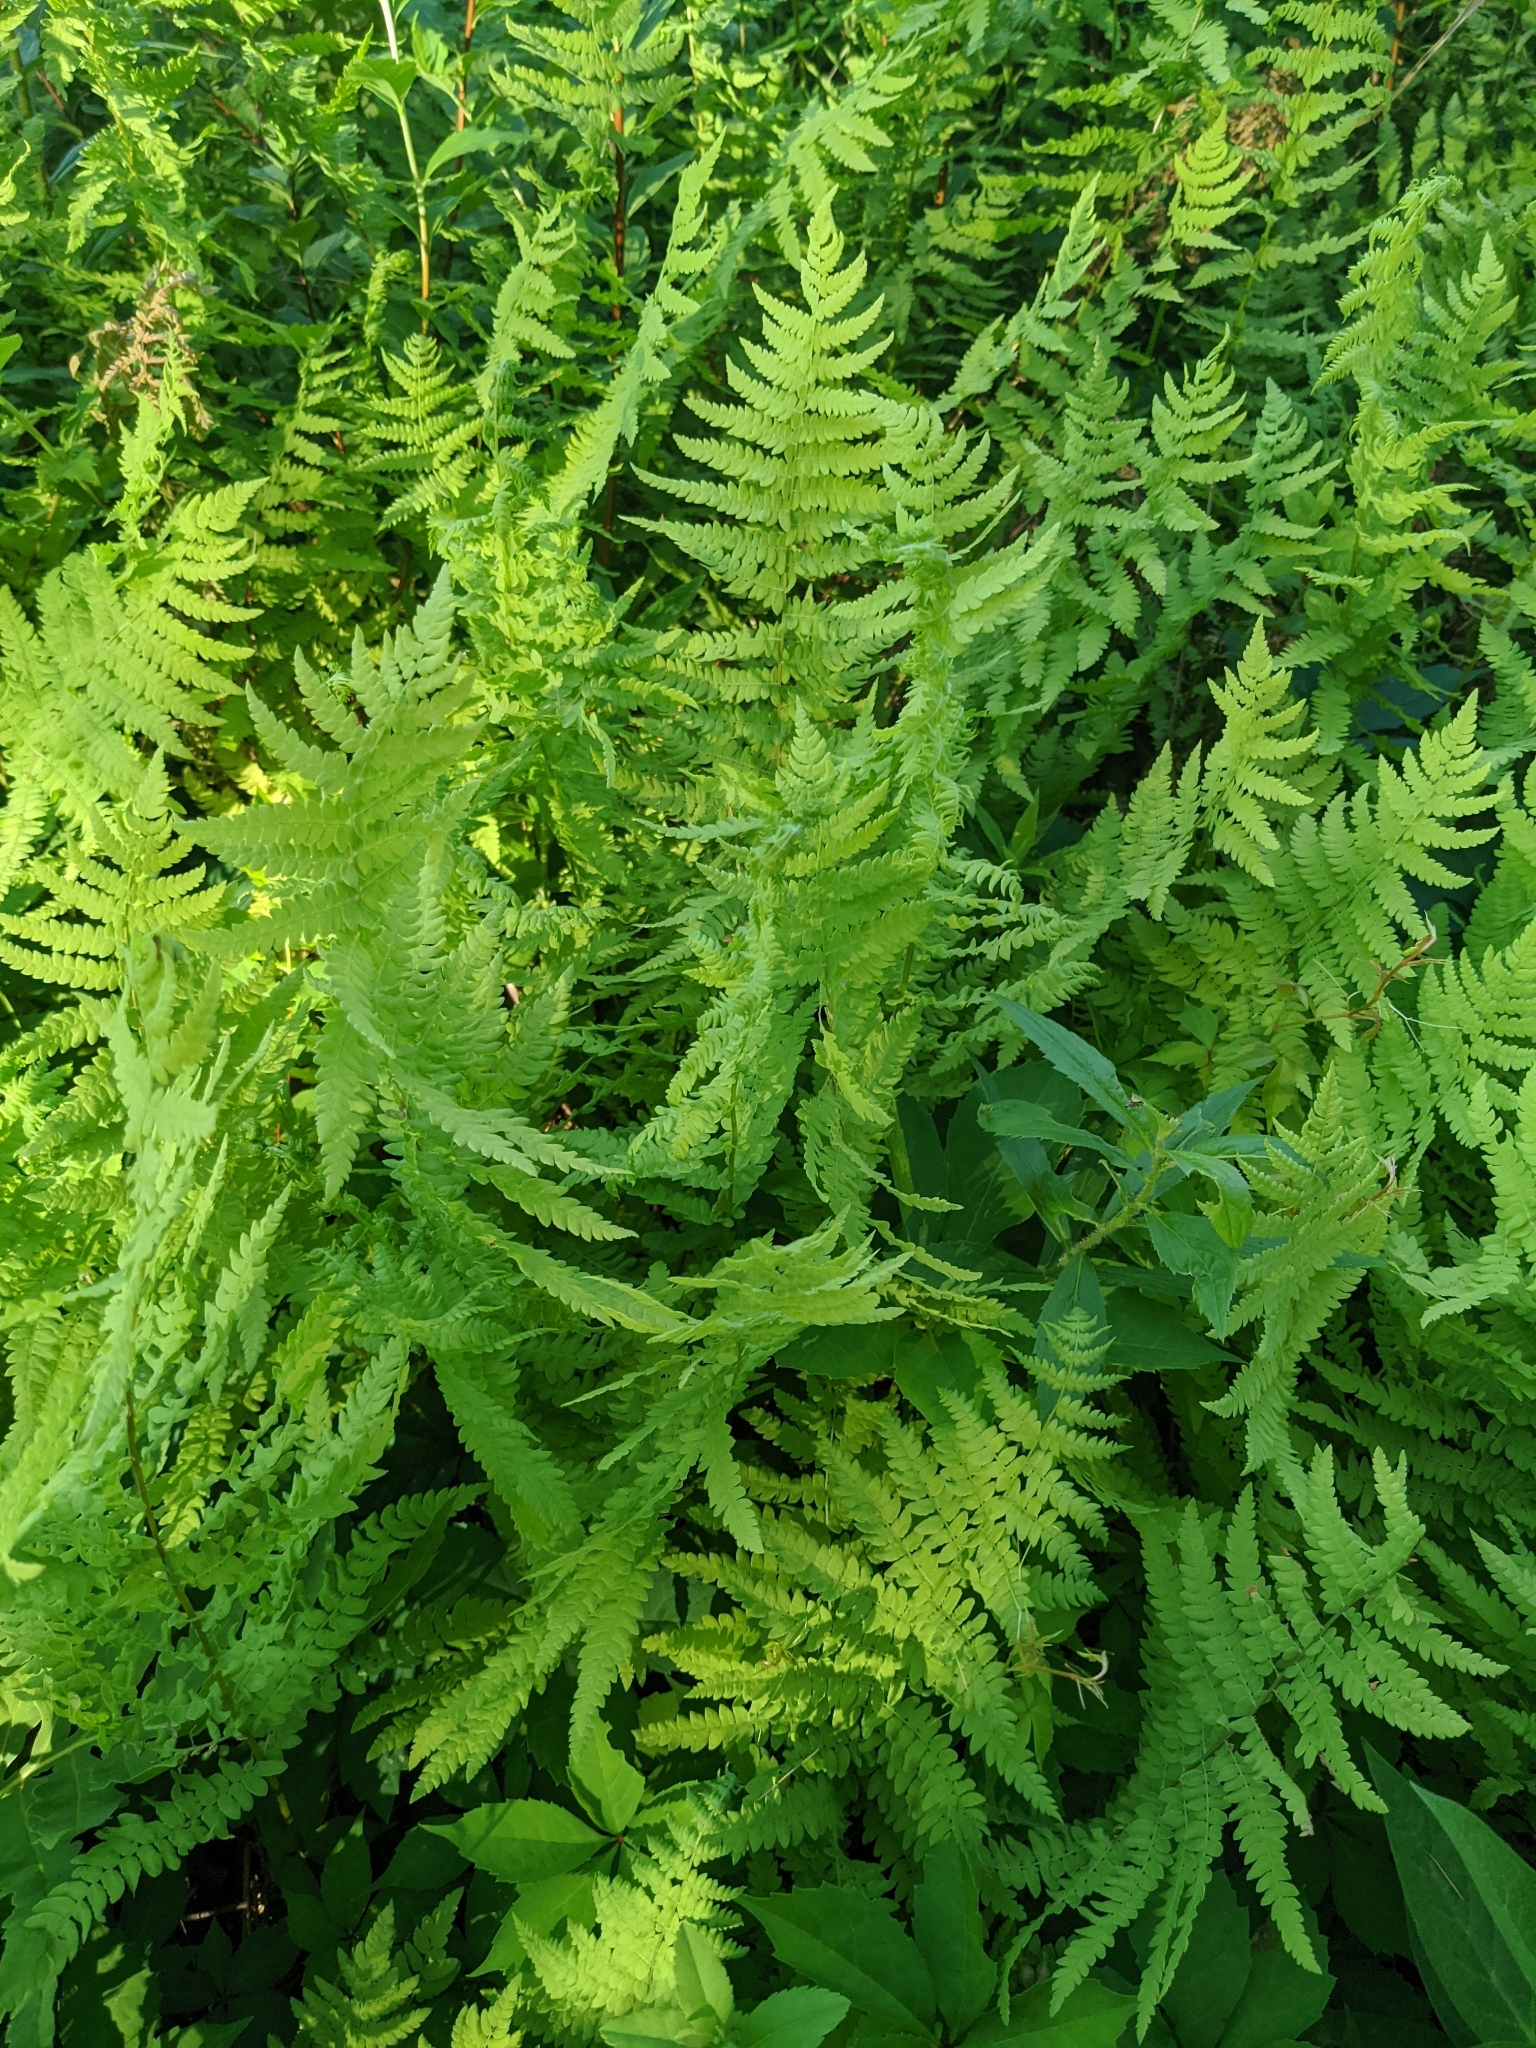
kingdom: Plantae
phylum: Tracheophyta
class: Polypodiopsida
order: Polypodiales
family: Thelypteridaceae
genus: Thelypteris
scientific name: Thelypteris palustris
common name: Marsh fern
